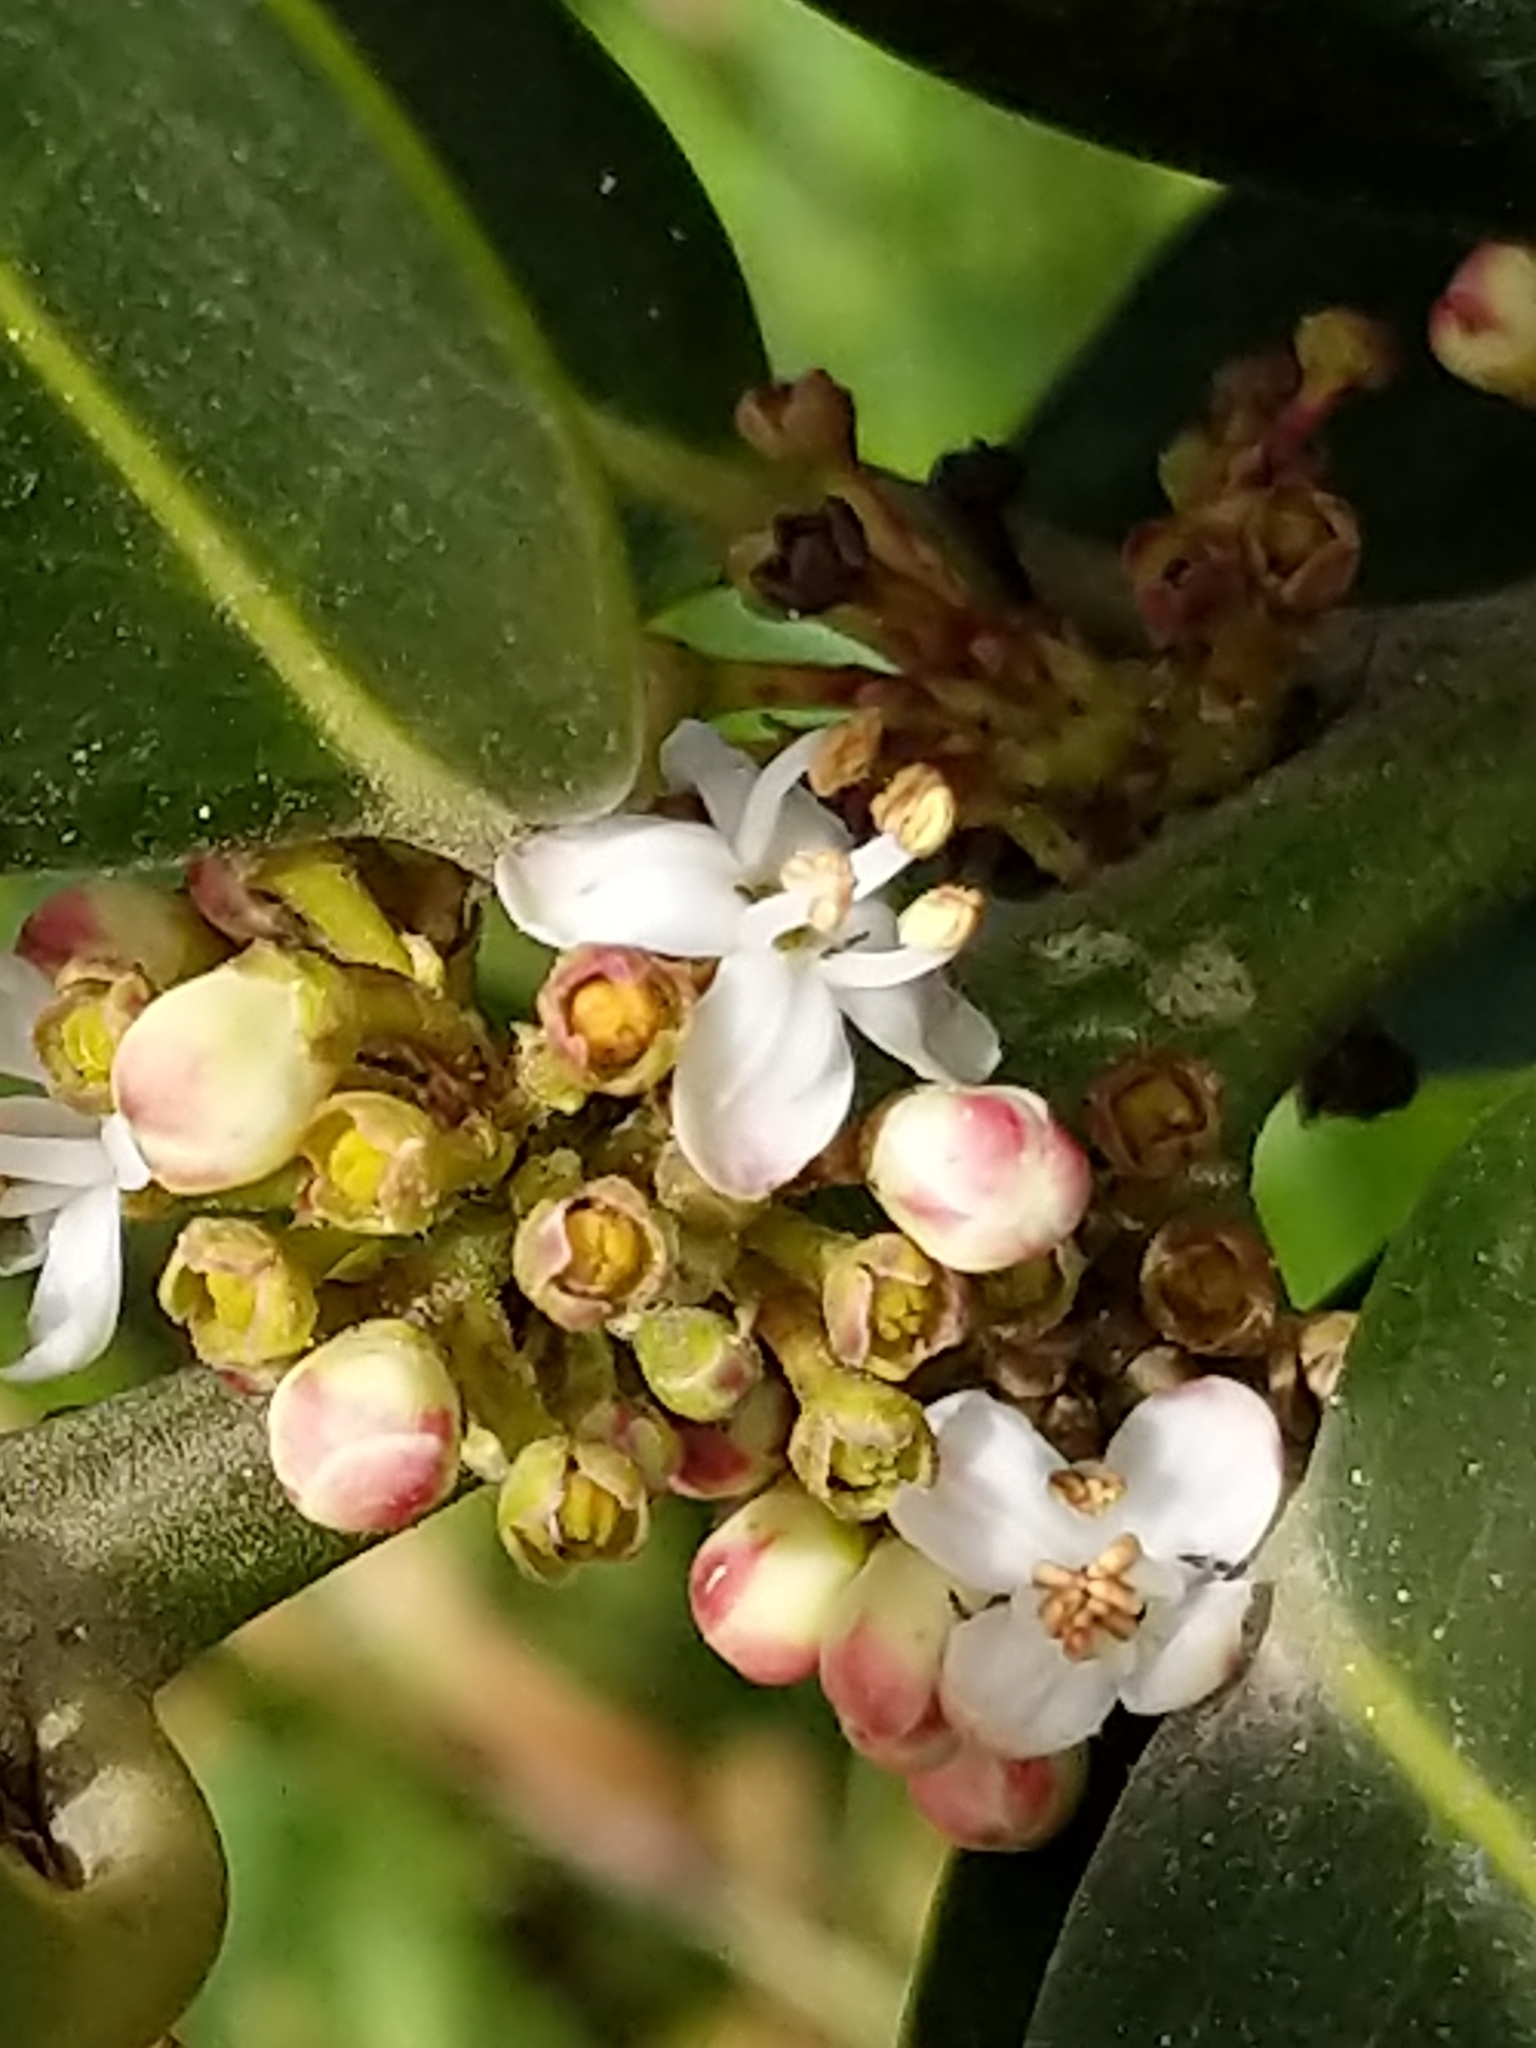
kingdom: Plantae
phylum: Tracheophyta
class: Magnoliopsida
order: Aquifoliales
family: Aquifoliaceae
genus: Ilex
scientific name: Ilex aquifolium
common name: English holly
